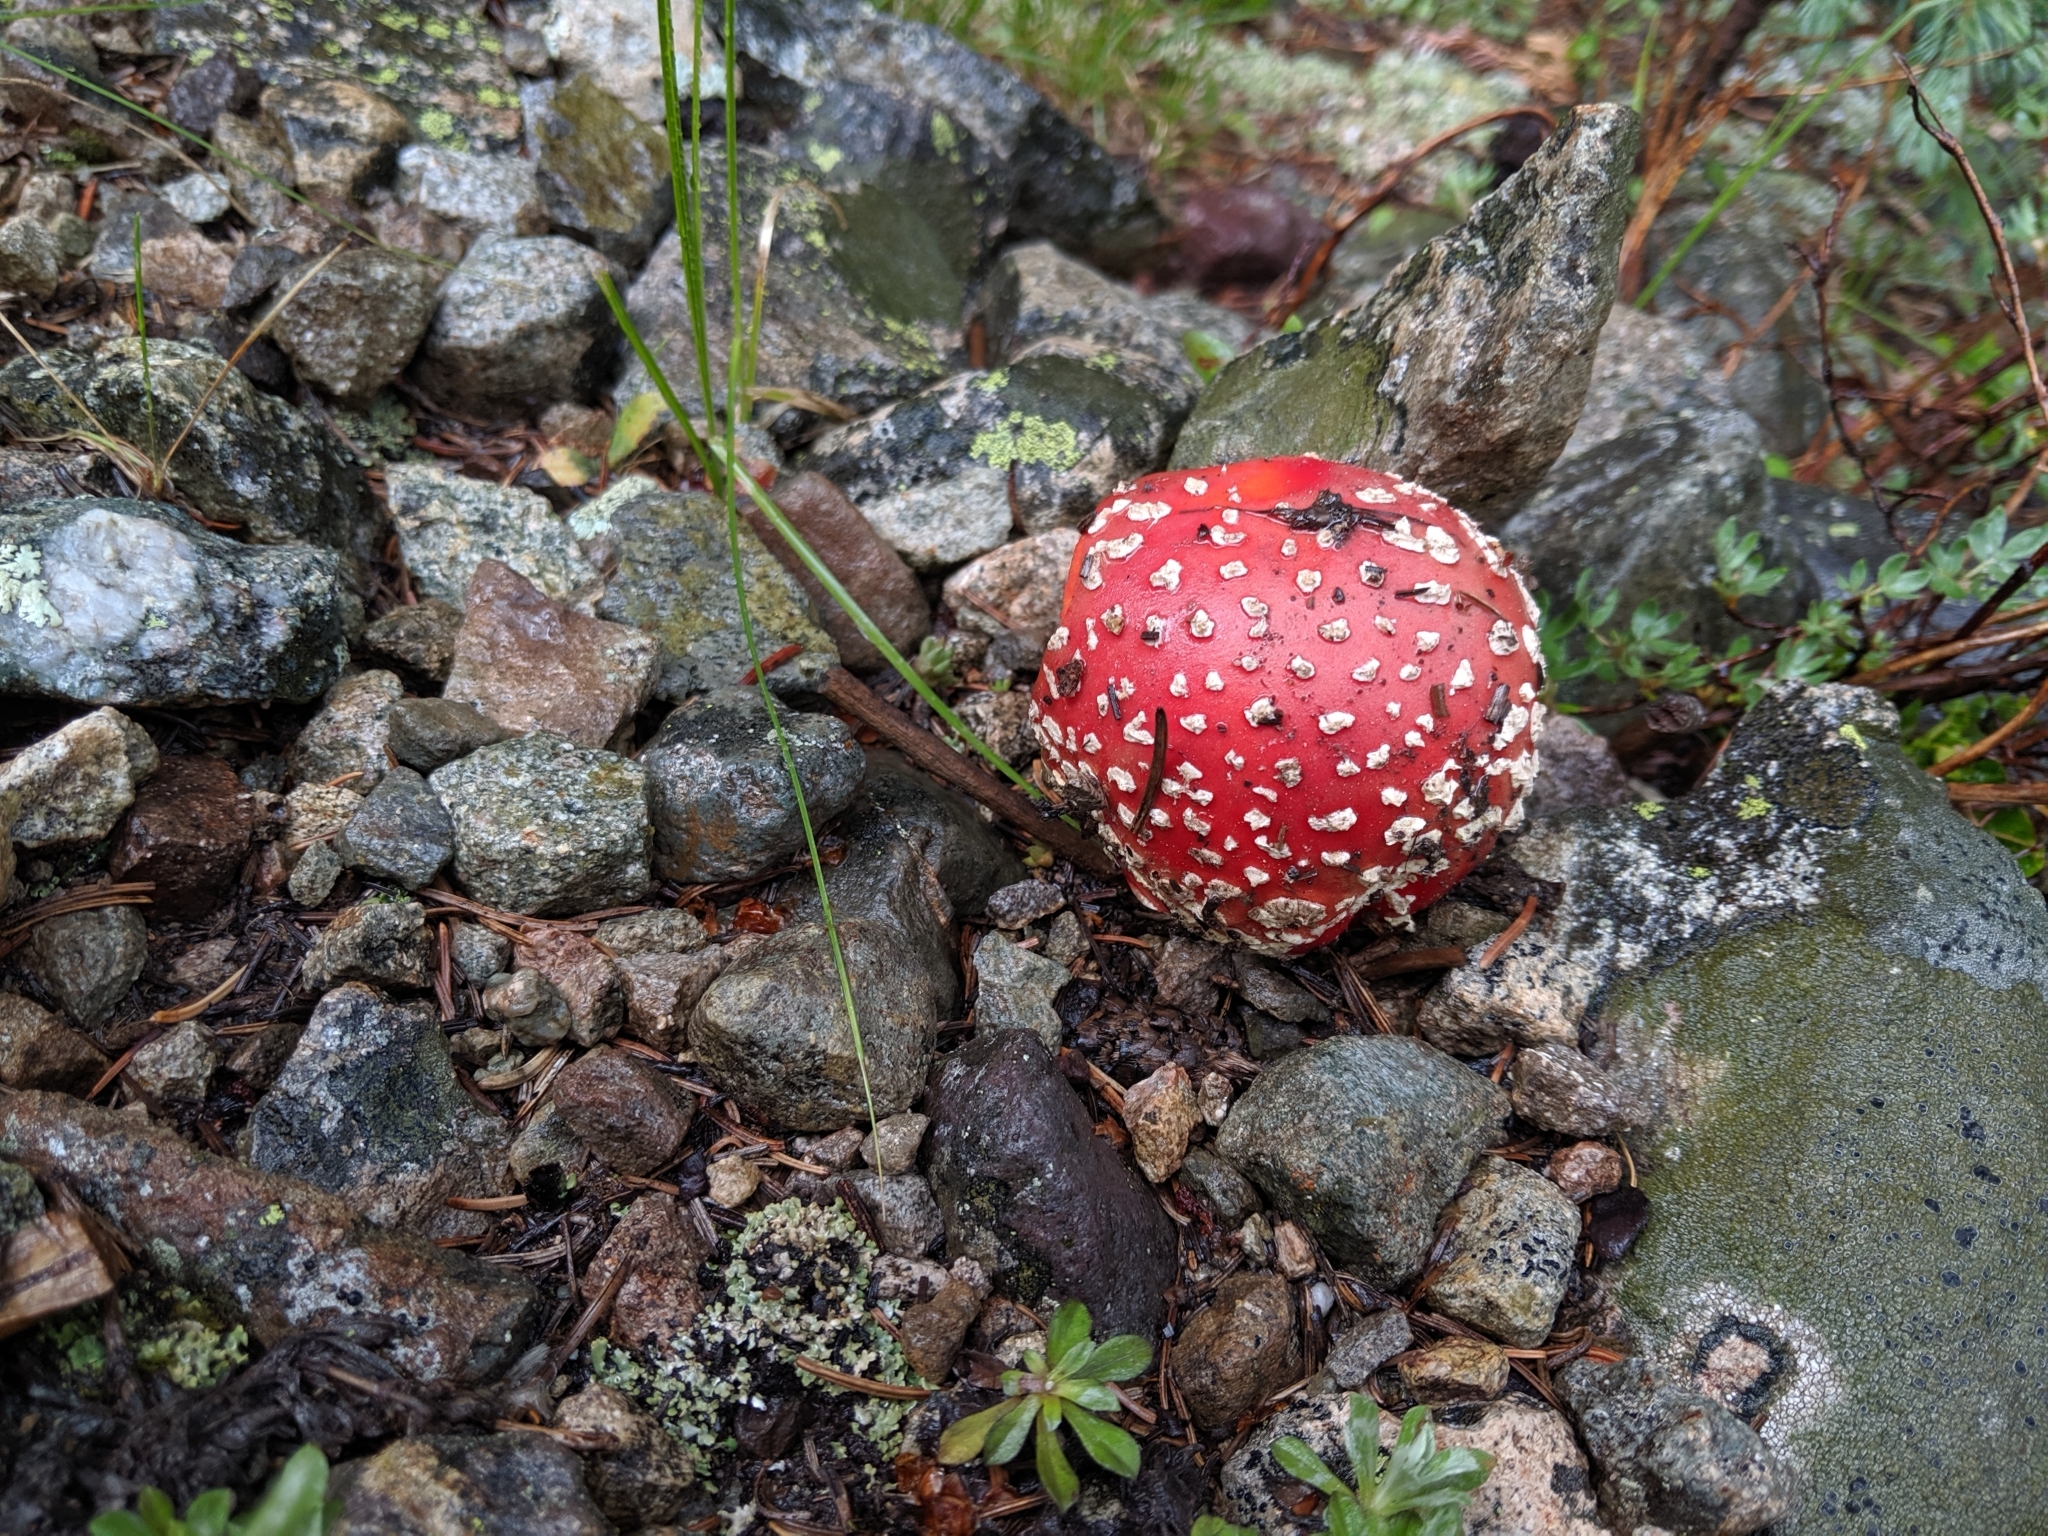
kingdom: Fungi
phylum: Basidiomycota
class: Agaricomycetes
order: Agaricales
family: Amanitaceae
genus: Amanita
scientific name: Amanita muscaria
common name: Fly agaric
